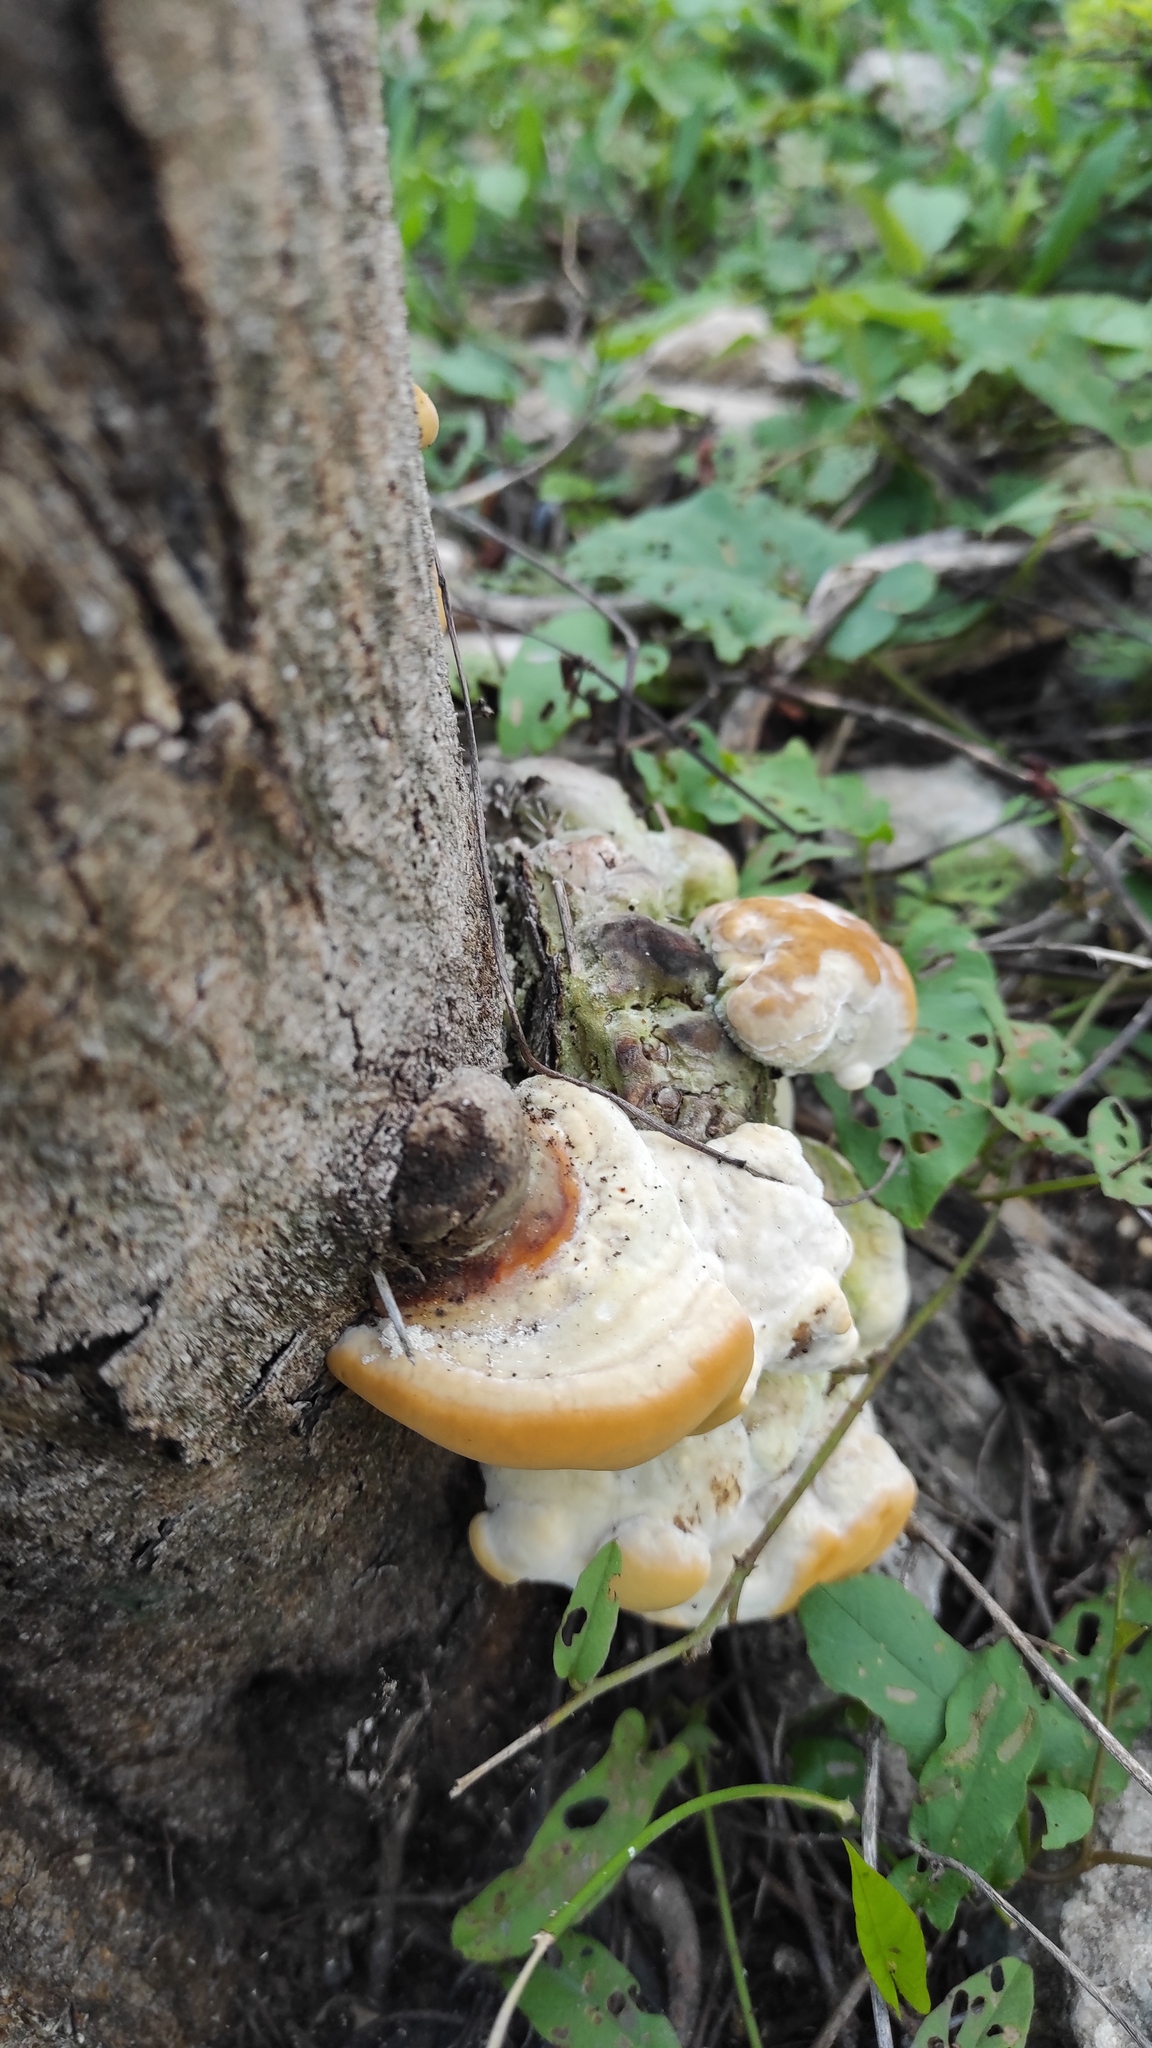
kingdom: Fungi
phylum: Basidiomycota
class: Agaricomycetes
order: Polyporales
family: Polyporaceae
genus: Trametes
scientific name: Trametes maxima
